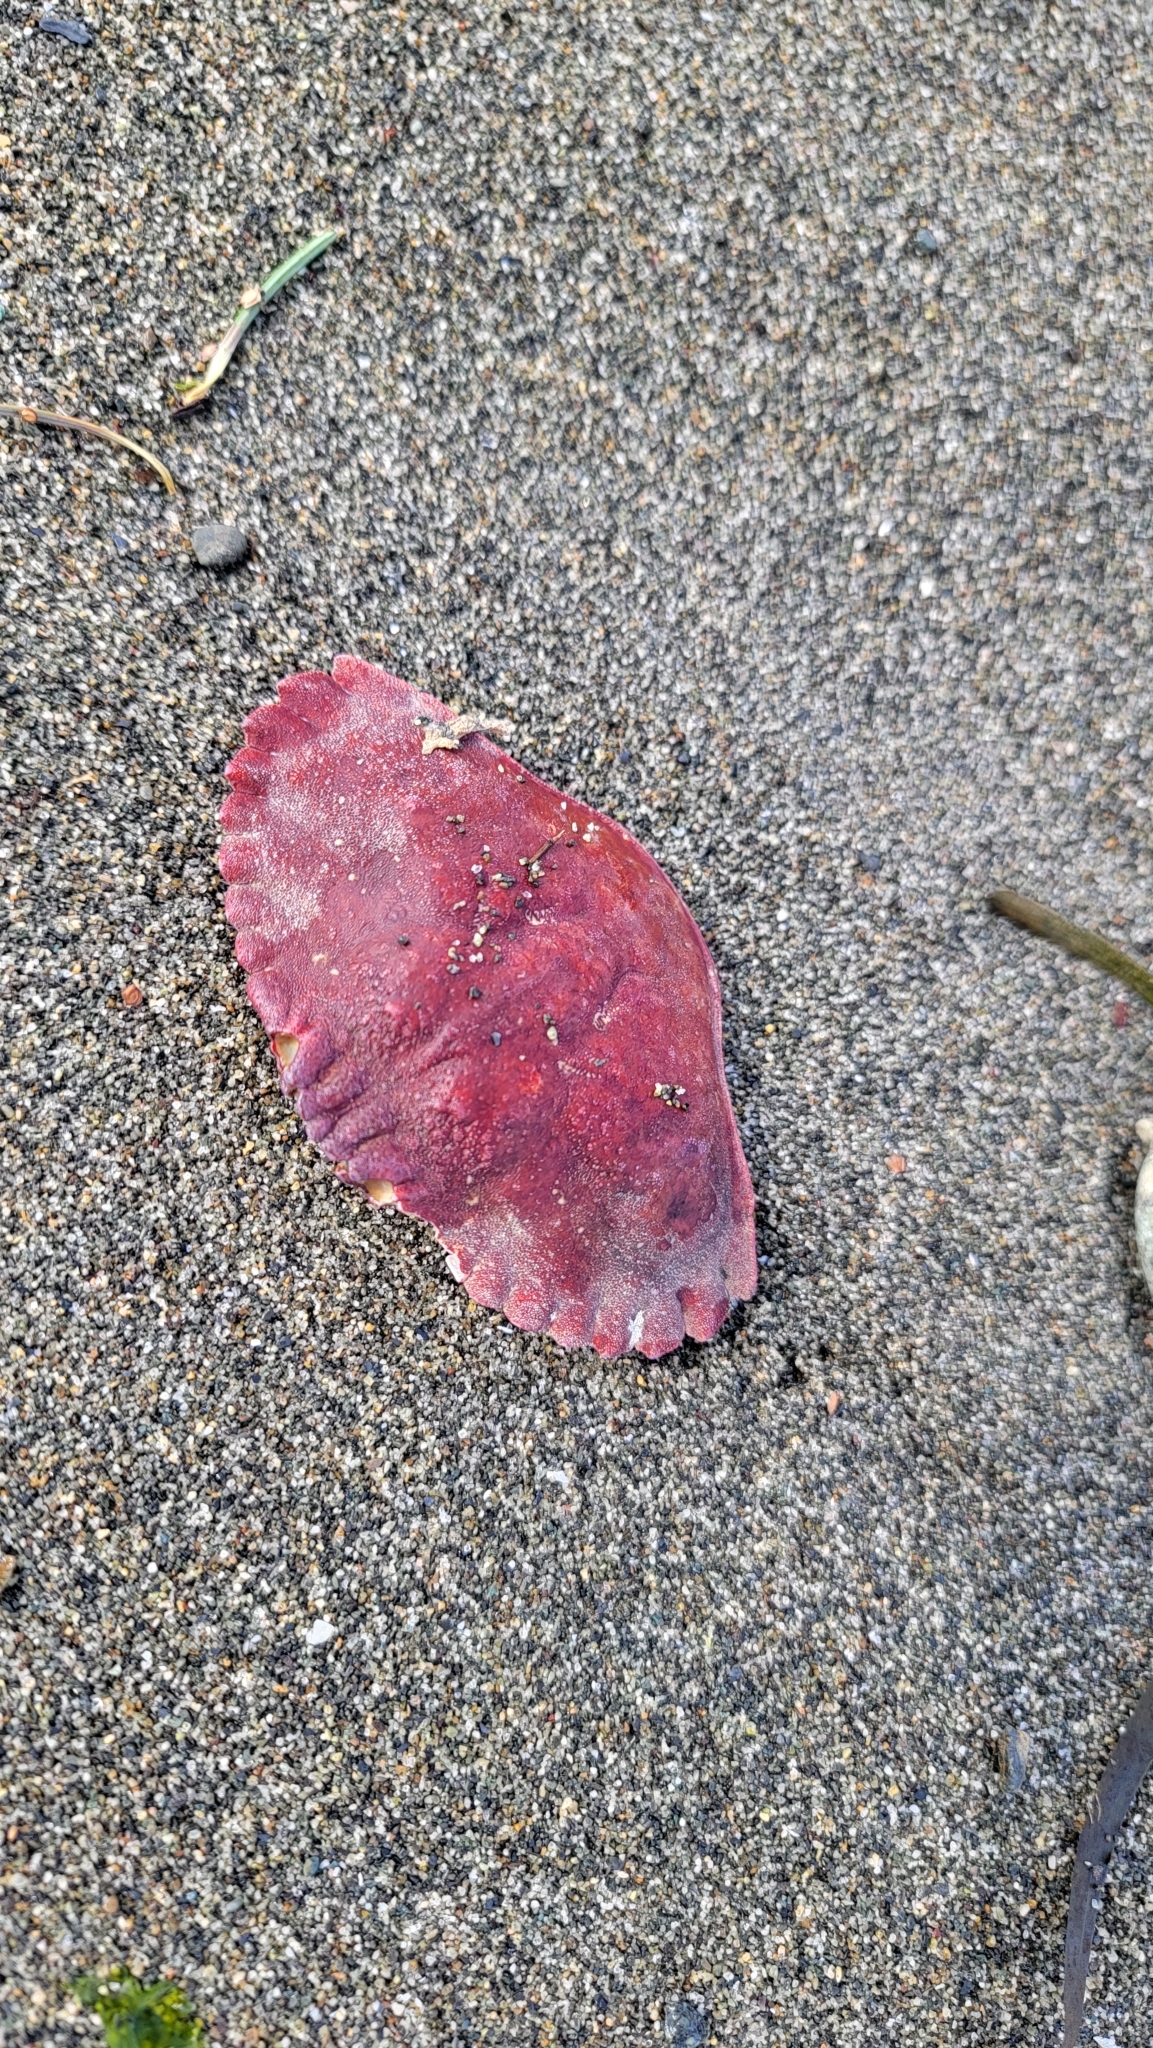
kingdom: Animalia
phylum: Arthropoda
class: Malacostraca
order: Decapoda
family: Cancridae
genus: Cancer
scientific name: Cancer productus
